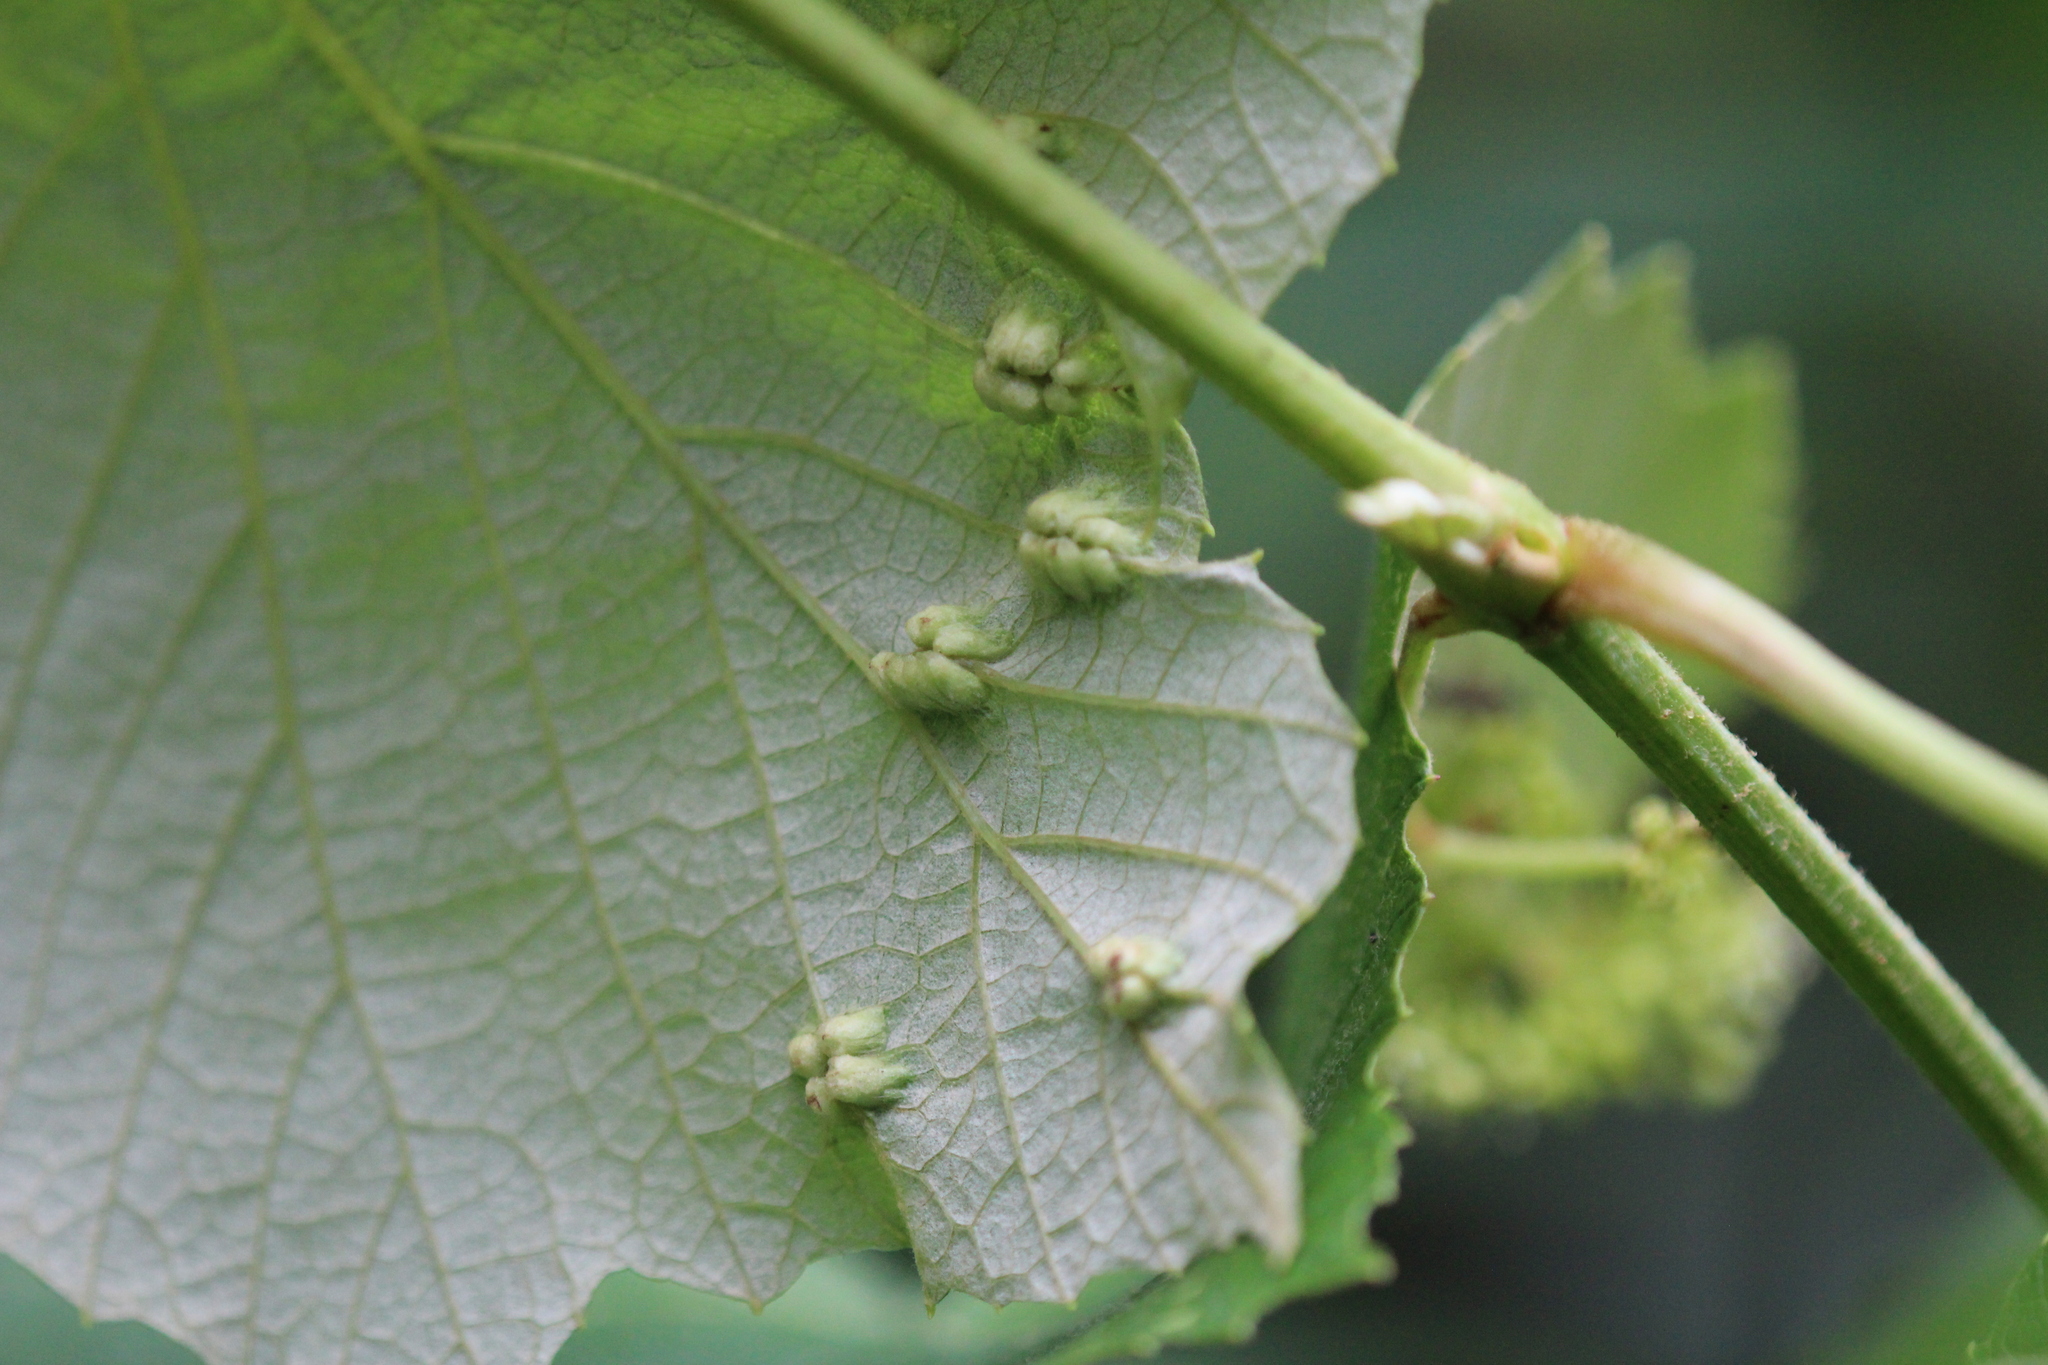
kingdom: Animalia
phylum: Arthropoda
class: Insecta
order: Lepidoptera
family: Heliozelidae
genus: Heliozela
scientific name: Heliozela aesella
